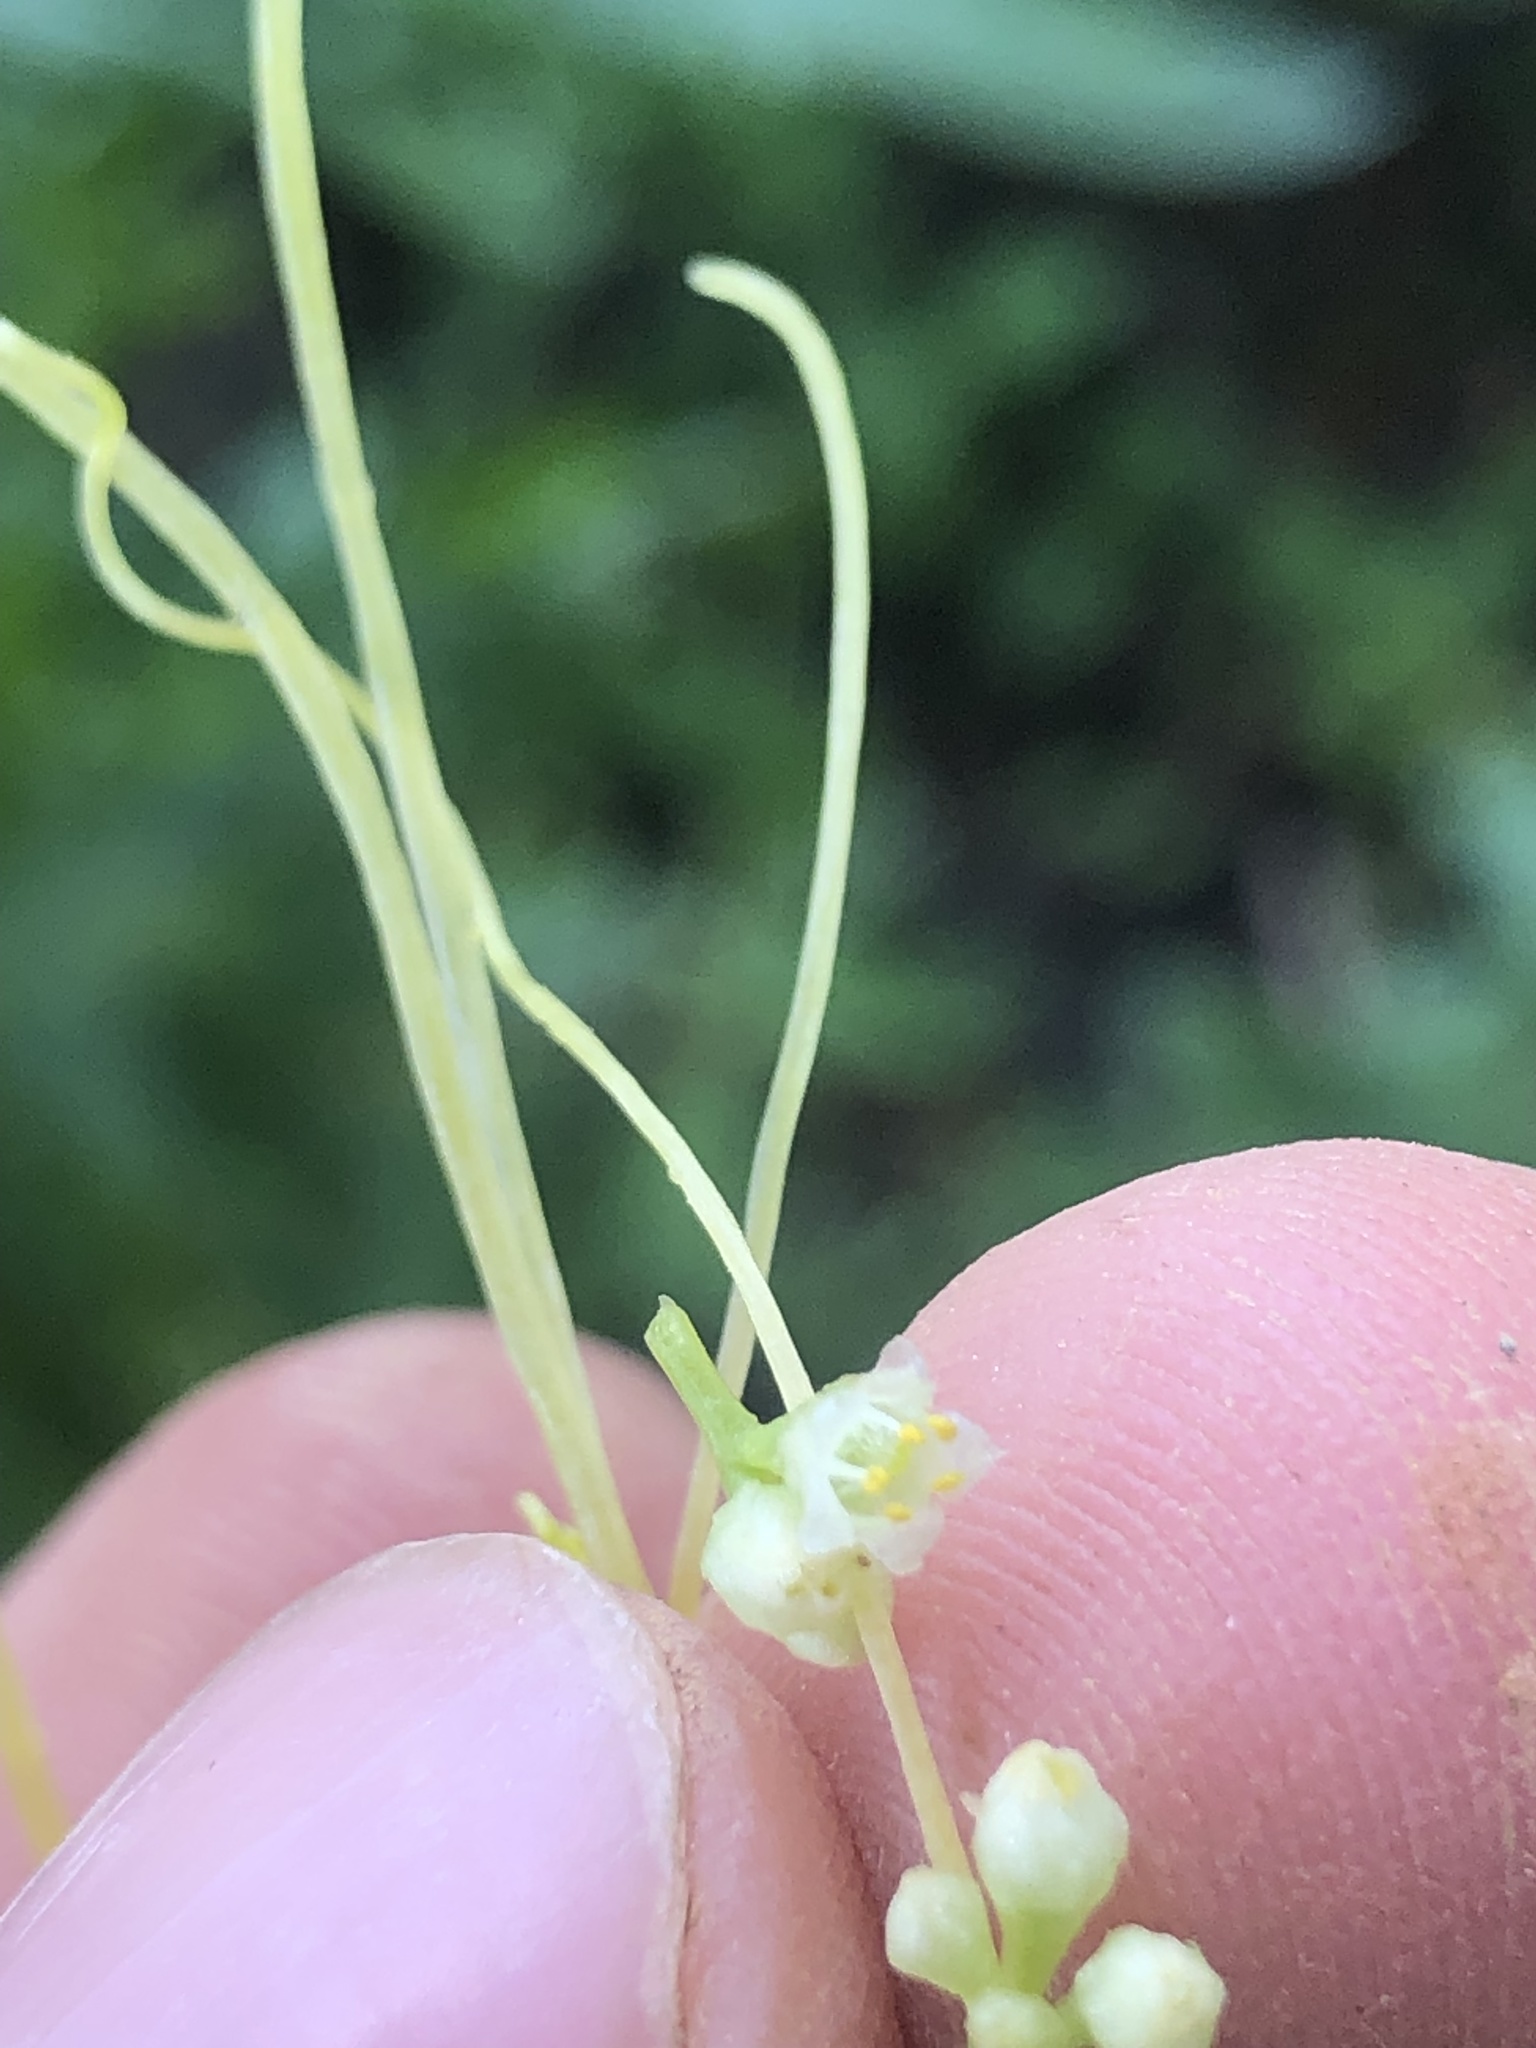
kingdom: Plantae
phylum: Tracheophyta
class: Magnoliopsida
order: Solanales
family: Convolvulaceae
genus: Cuscuta
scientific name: Cuscuta campestris
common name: Yellow dodder
